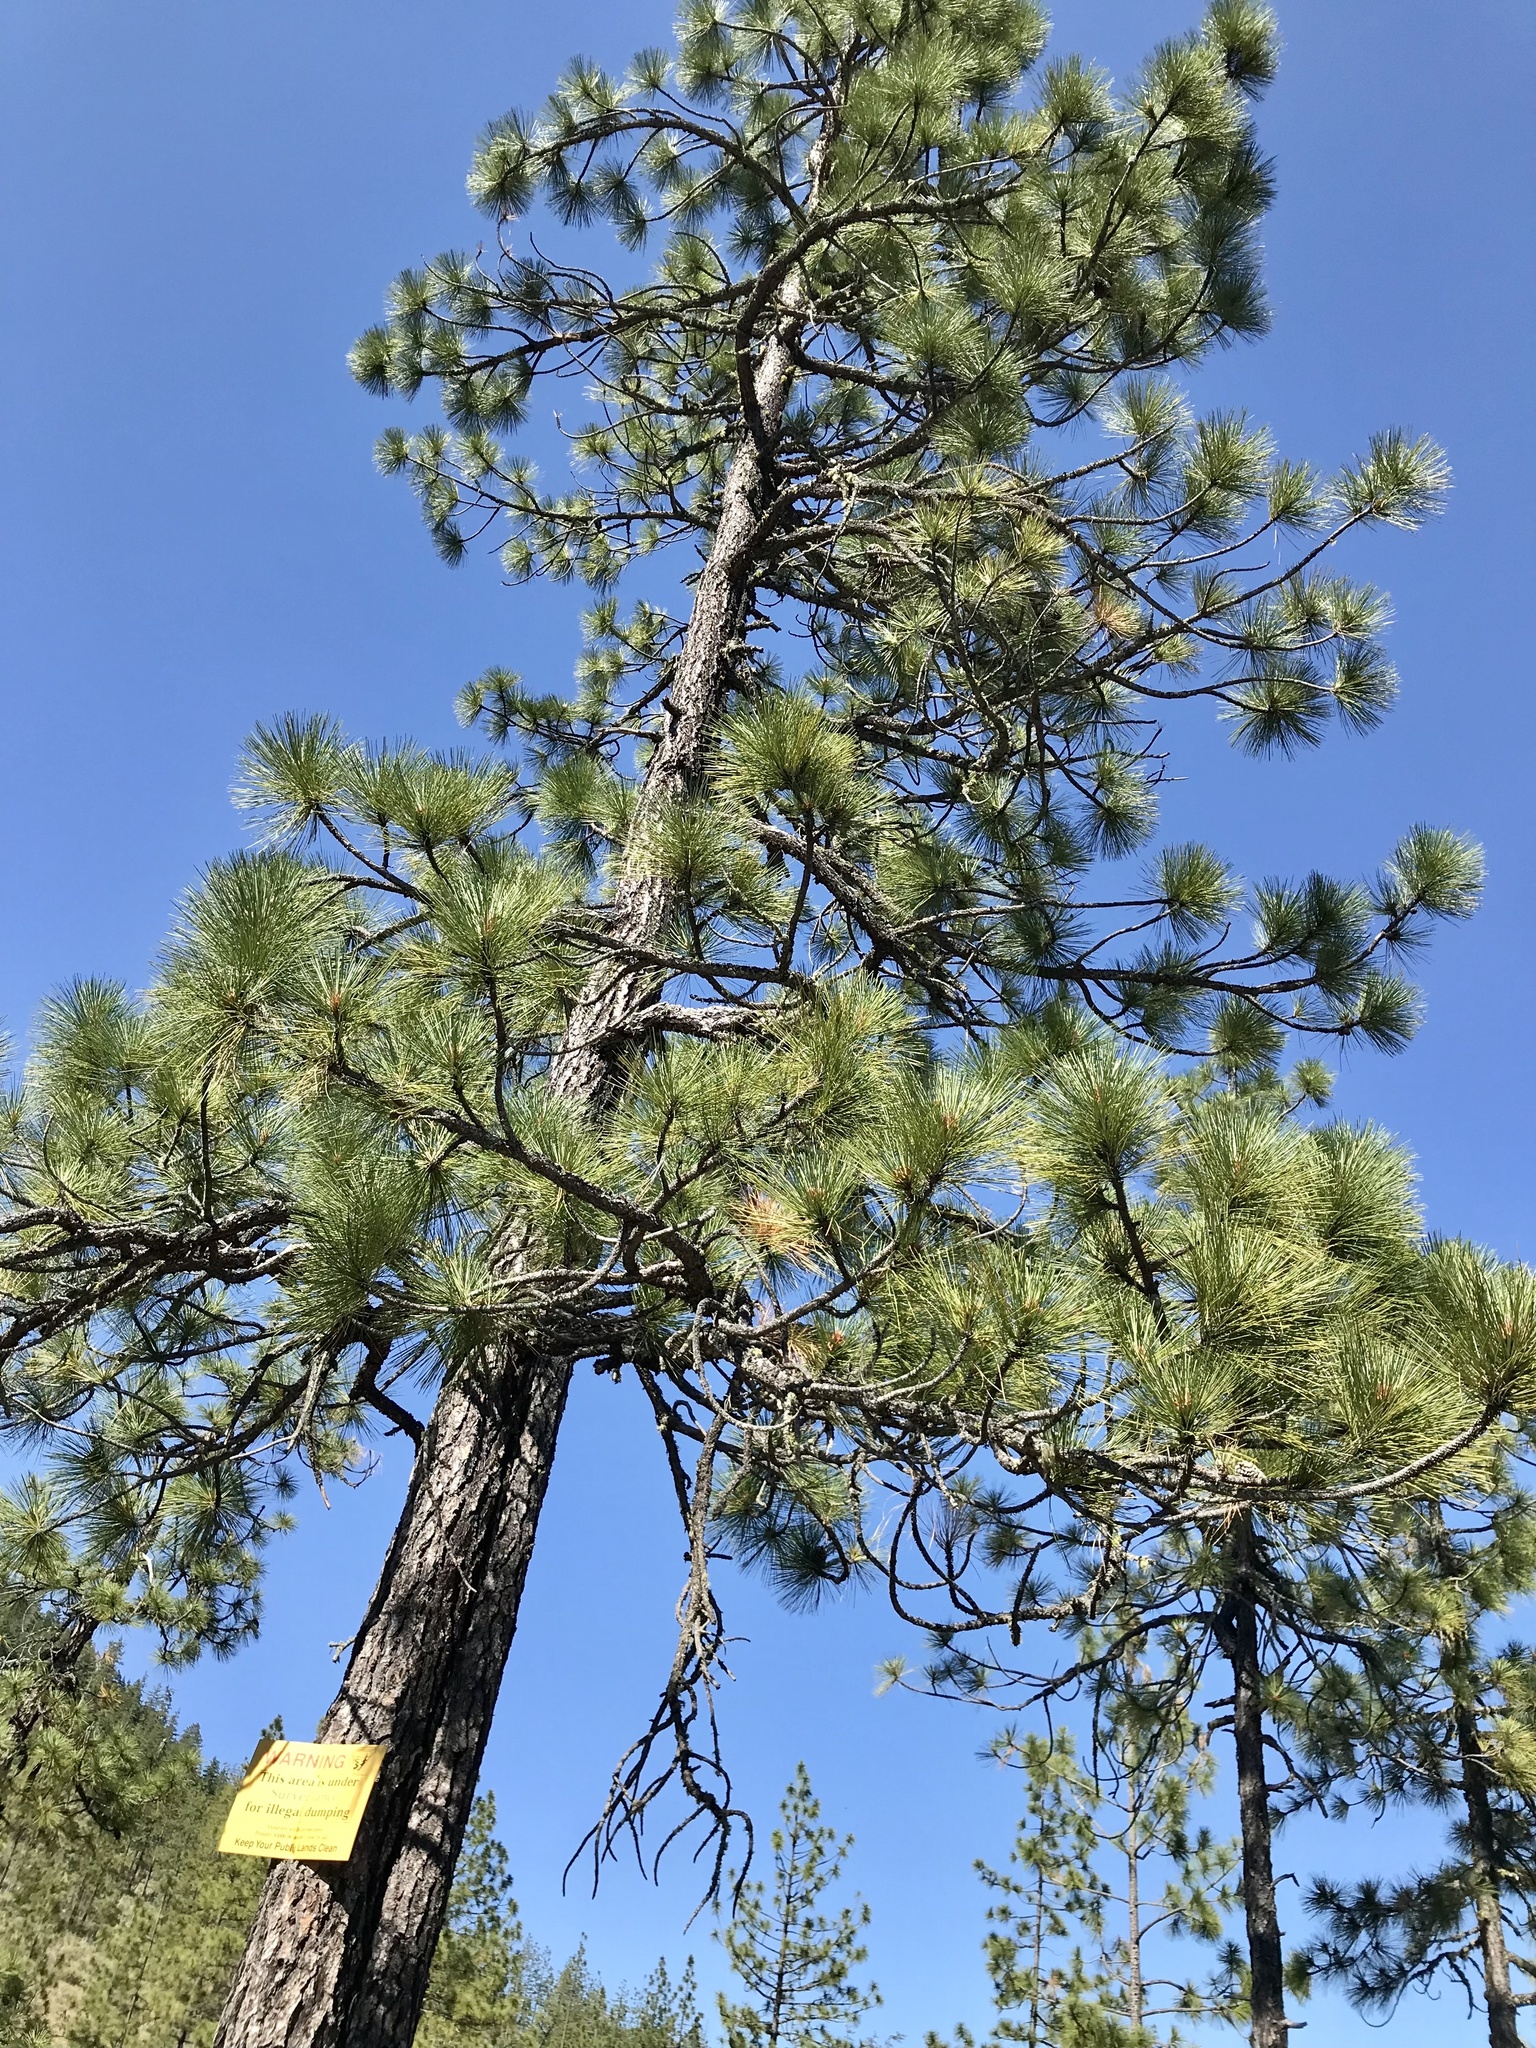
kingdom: Plantae
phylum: Tracheophyta
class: Pinopsida
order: Pinales
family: Pinaceae
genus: Pinus
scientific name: Pinus jeffreyi
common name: Jeffrey pine
